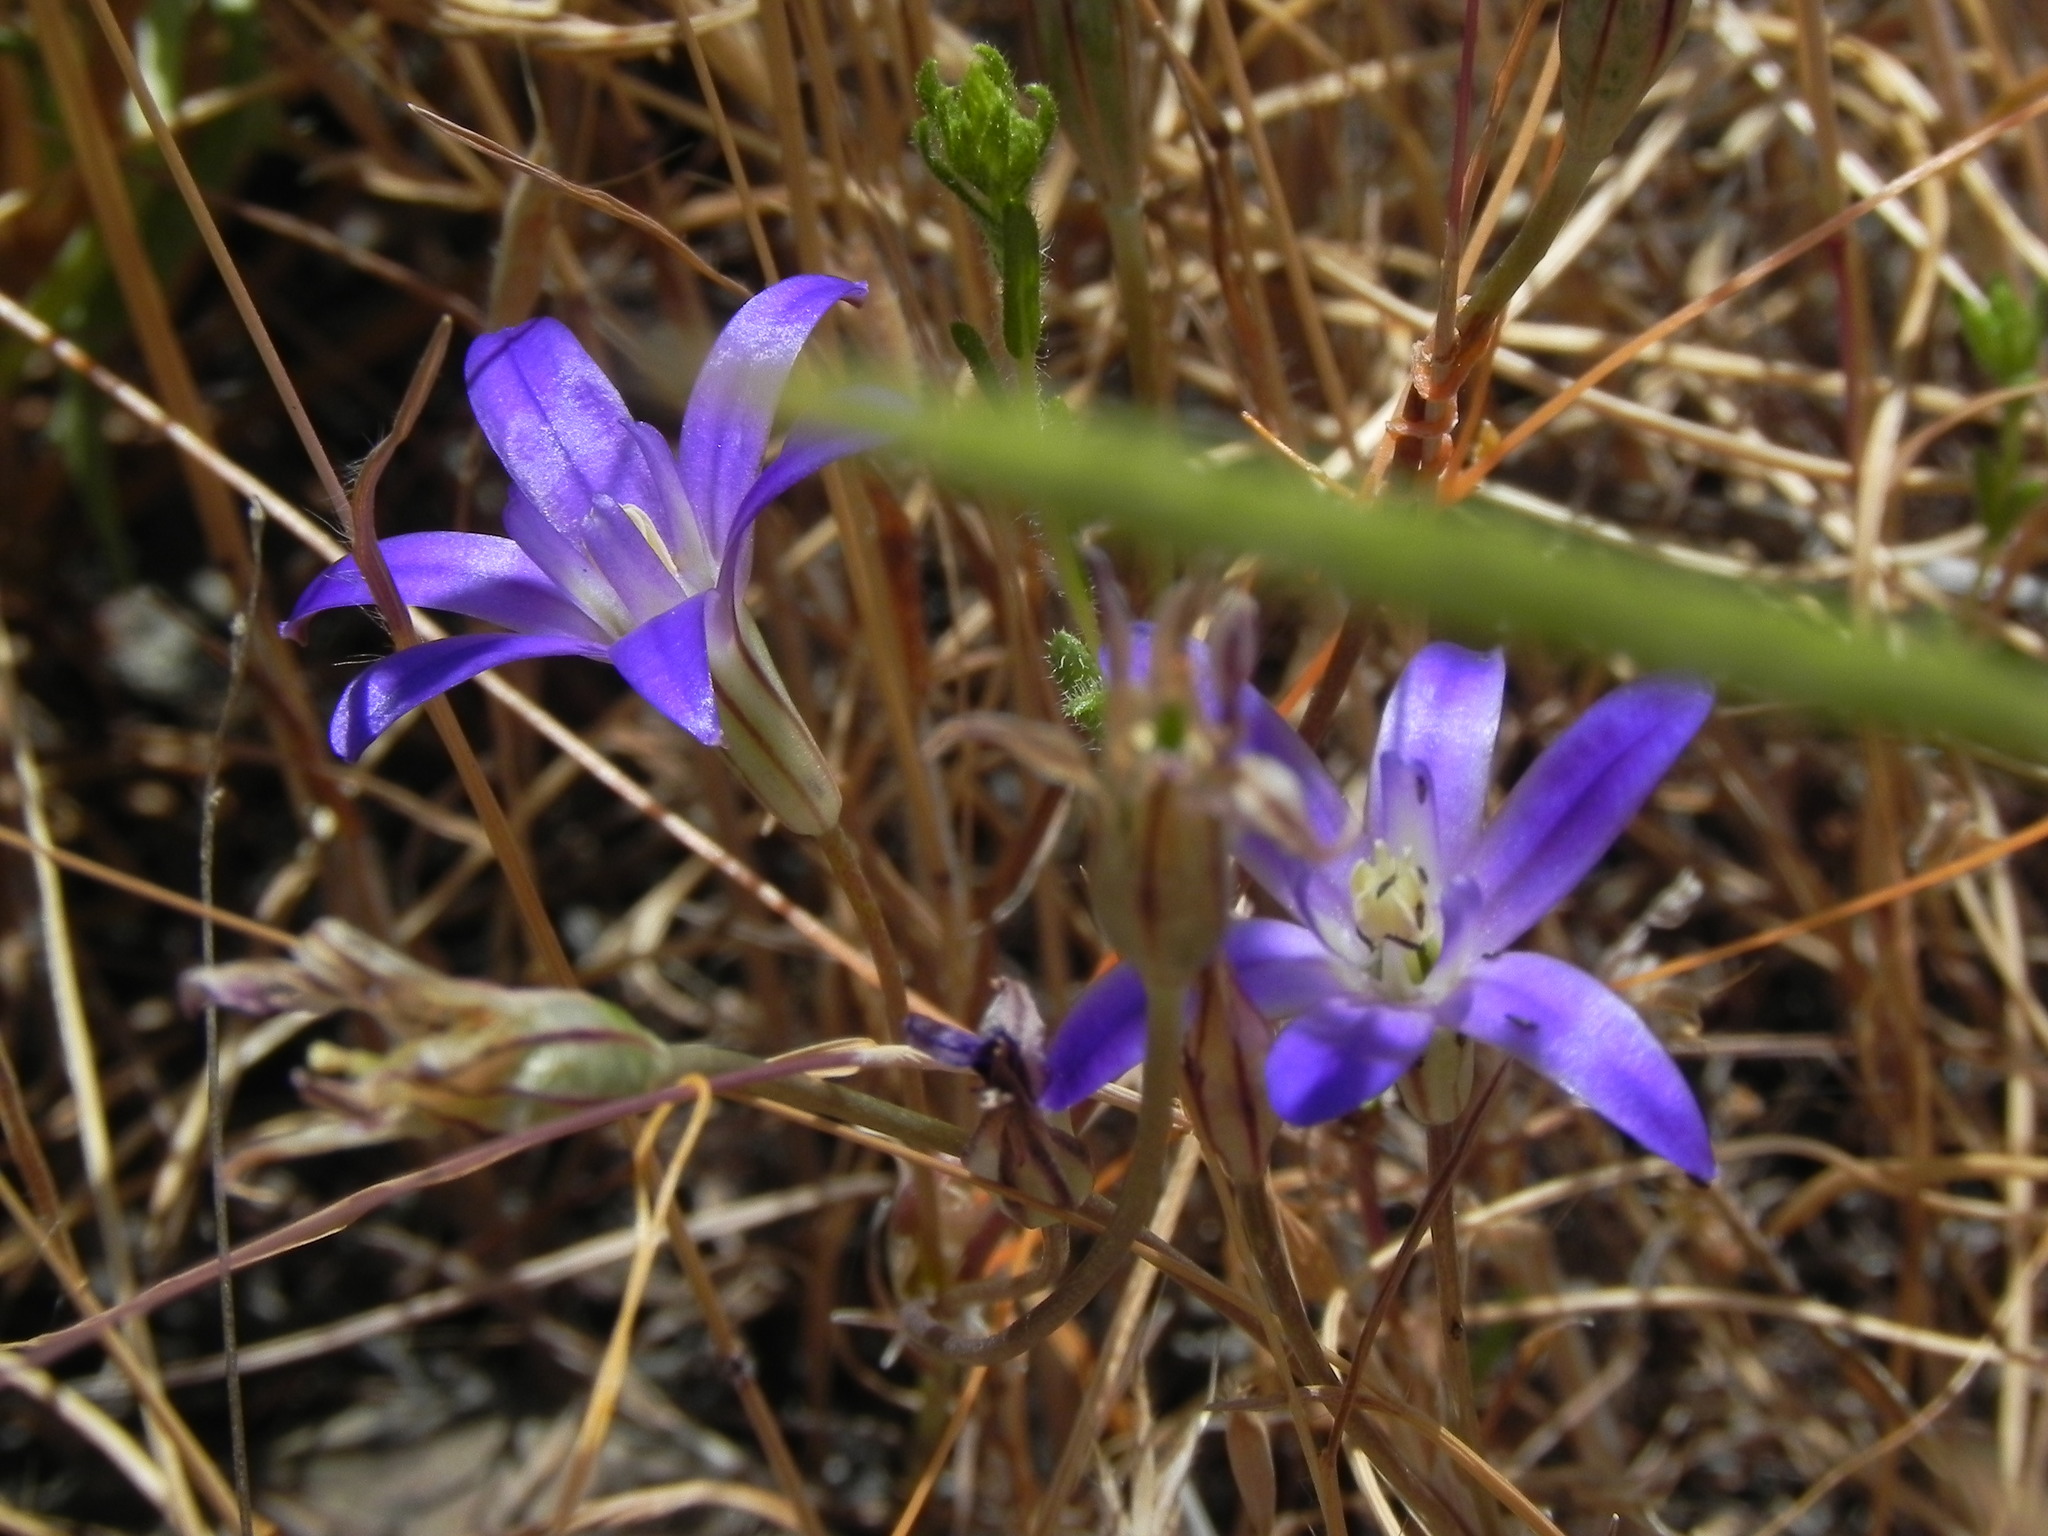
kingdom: Plantae
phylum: Tracheophyta
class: Liliopsida
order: Asparagales
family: Asparagaceae
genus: Brodiaea
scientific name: Brodiaea terrestris
